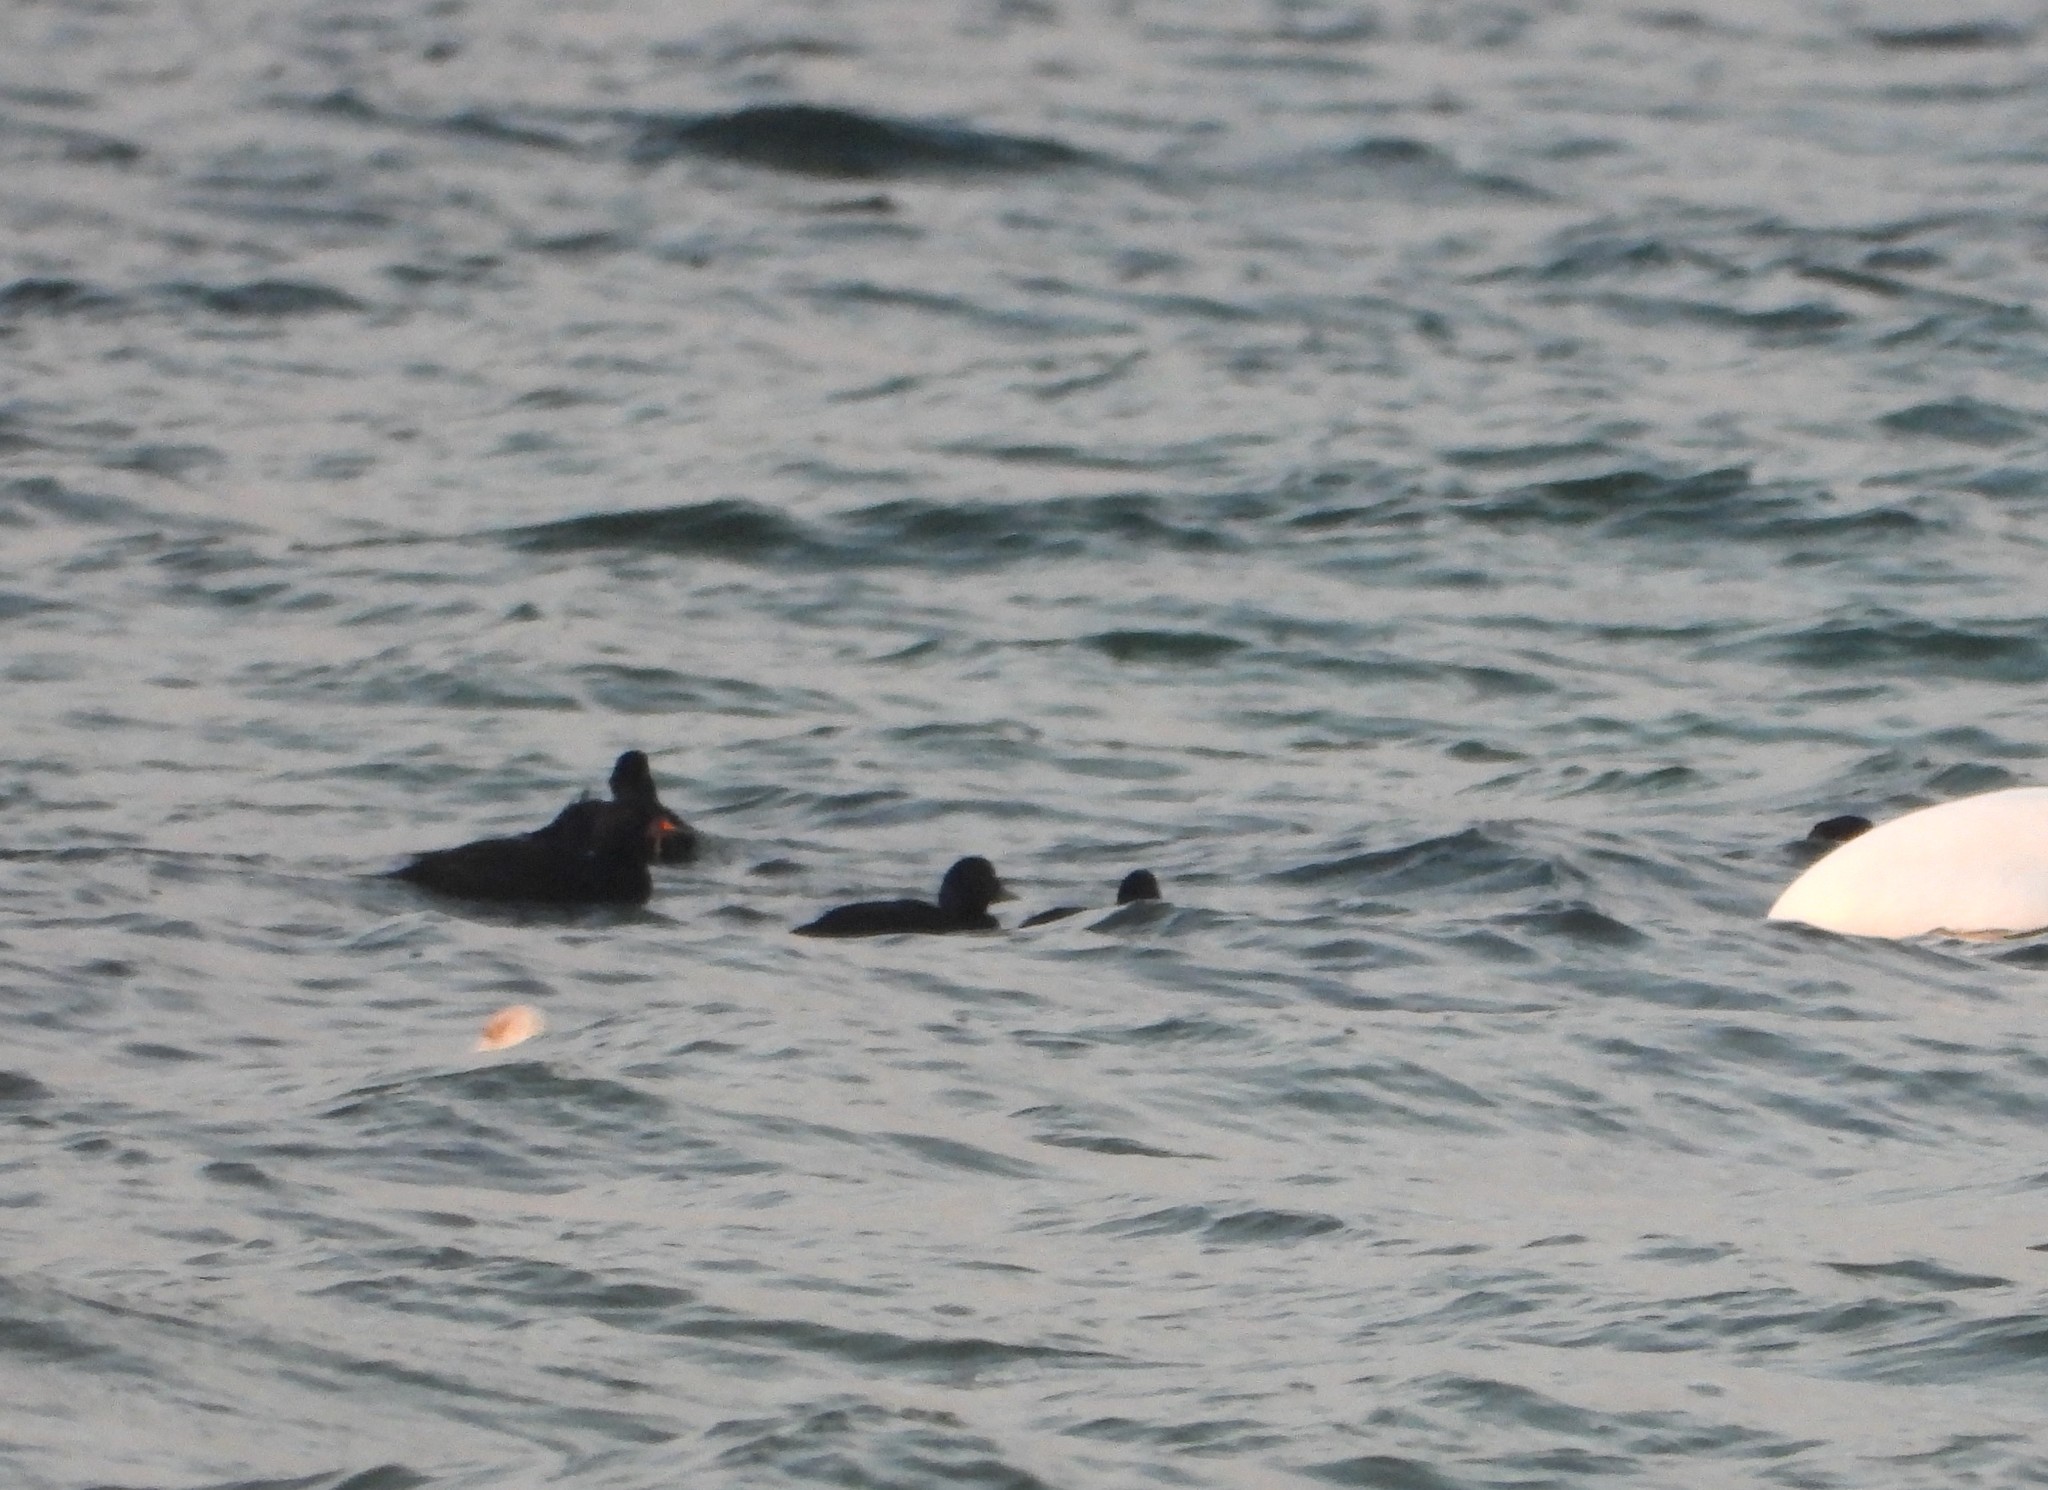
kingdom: Animalia
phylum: Chordata
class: Aves
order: Anseriformes
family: Anatidae
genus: Melanitta
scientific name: Melanitta nigra
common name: Common scoter
